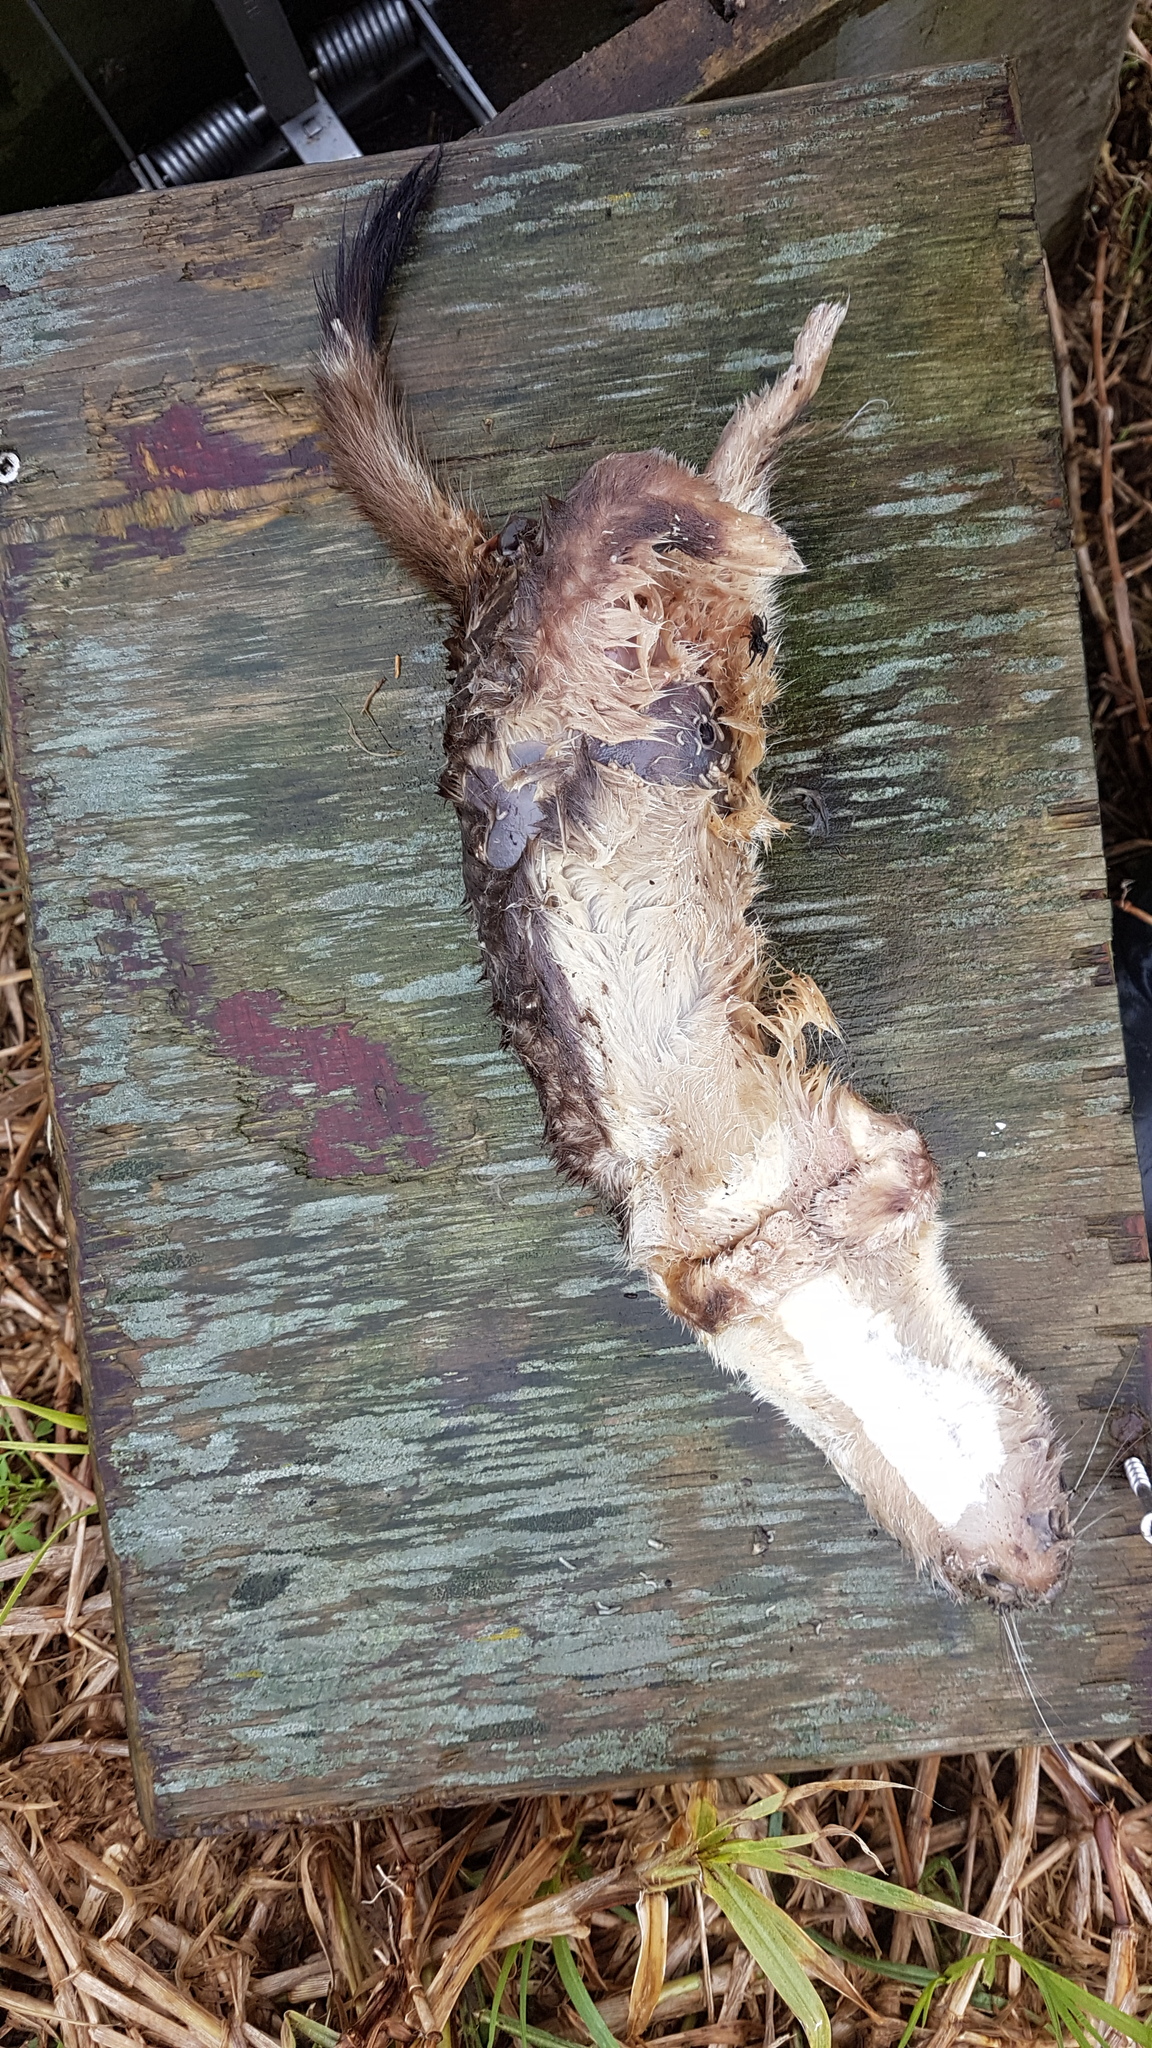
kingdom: Animalia
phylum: Chordata
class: Mammalia
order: Carnivora
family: Mustelidae
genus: Mustela
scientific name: Mustela erminea
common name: Stoat
